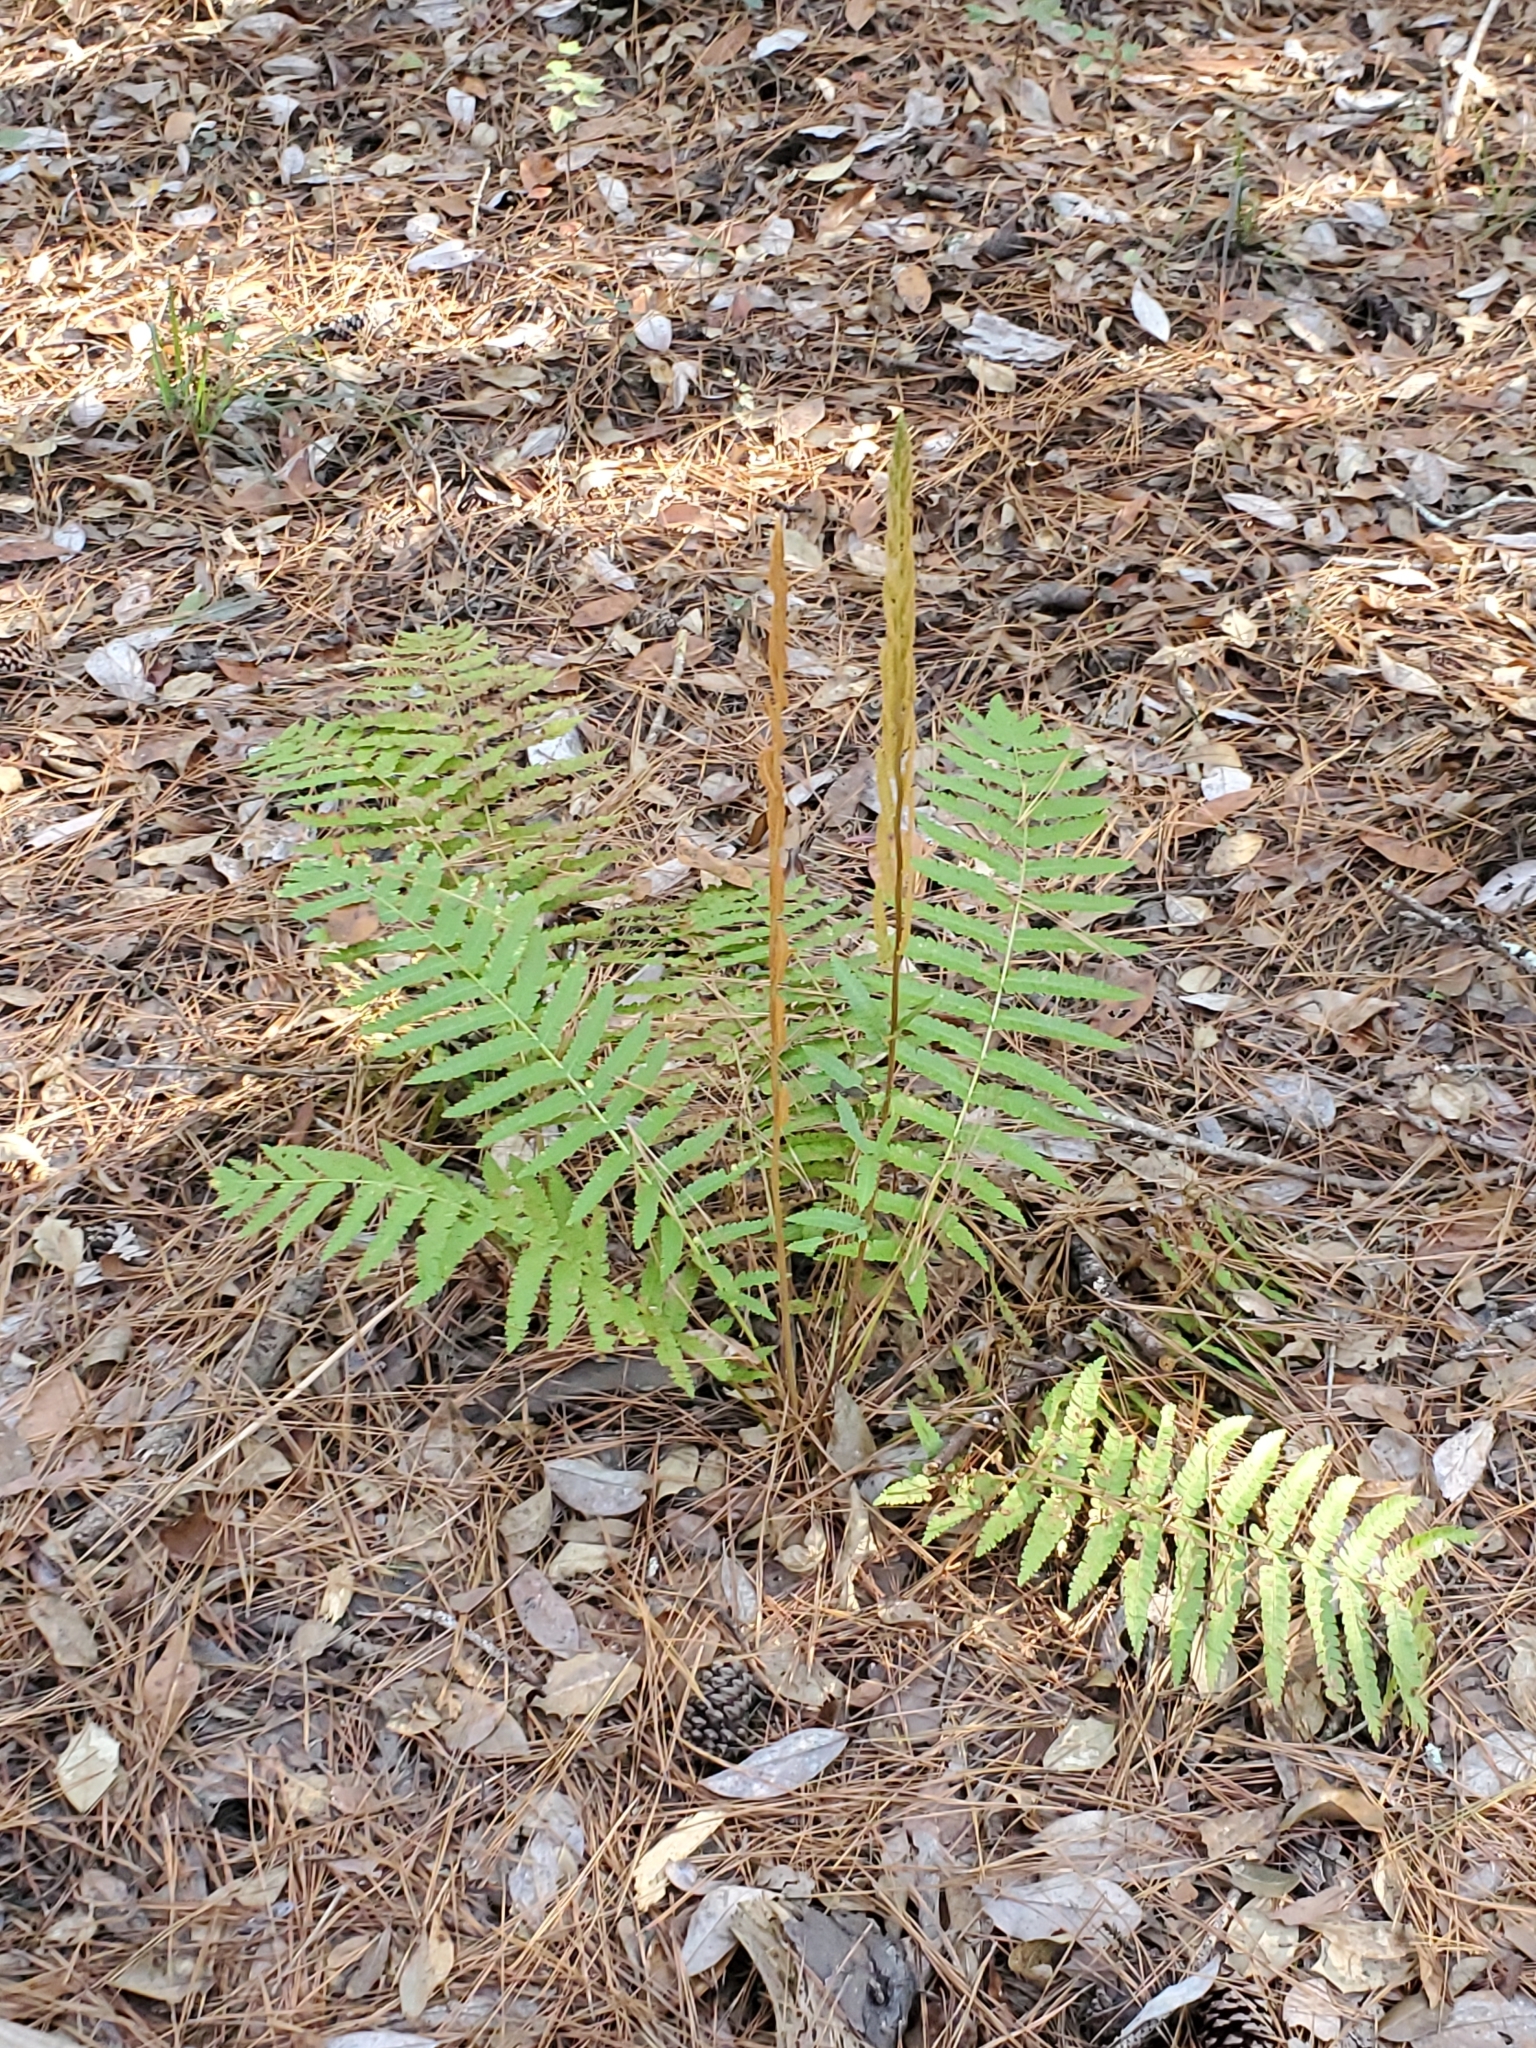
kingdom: Plantae
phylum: Tracheophyta
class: Polypodiopsida
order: Osmundales
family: Osmundaceae
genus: Osmundastrum
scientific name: Osmundastrum cinnamomeum
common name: Cinnamon fern
